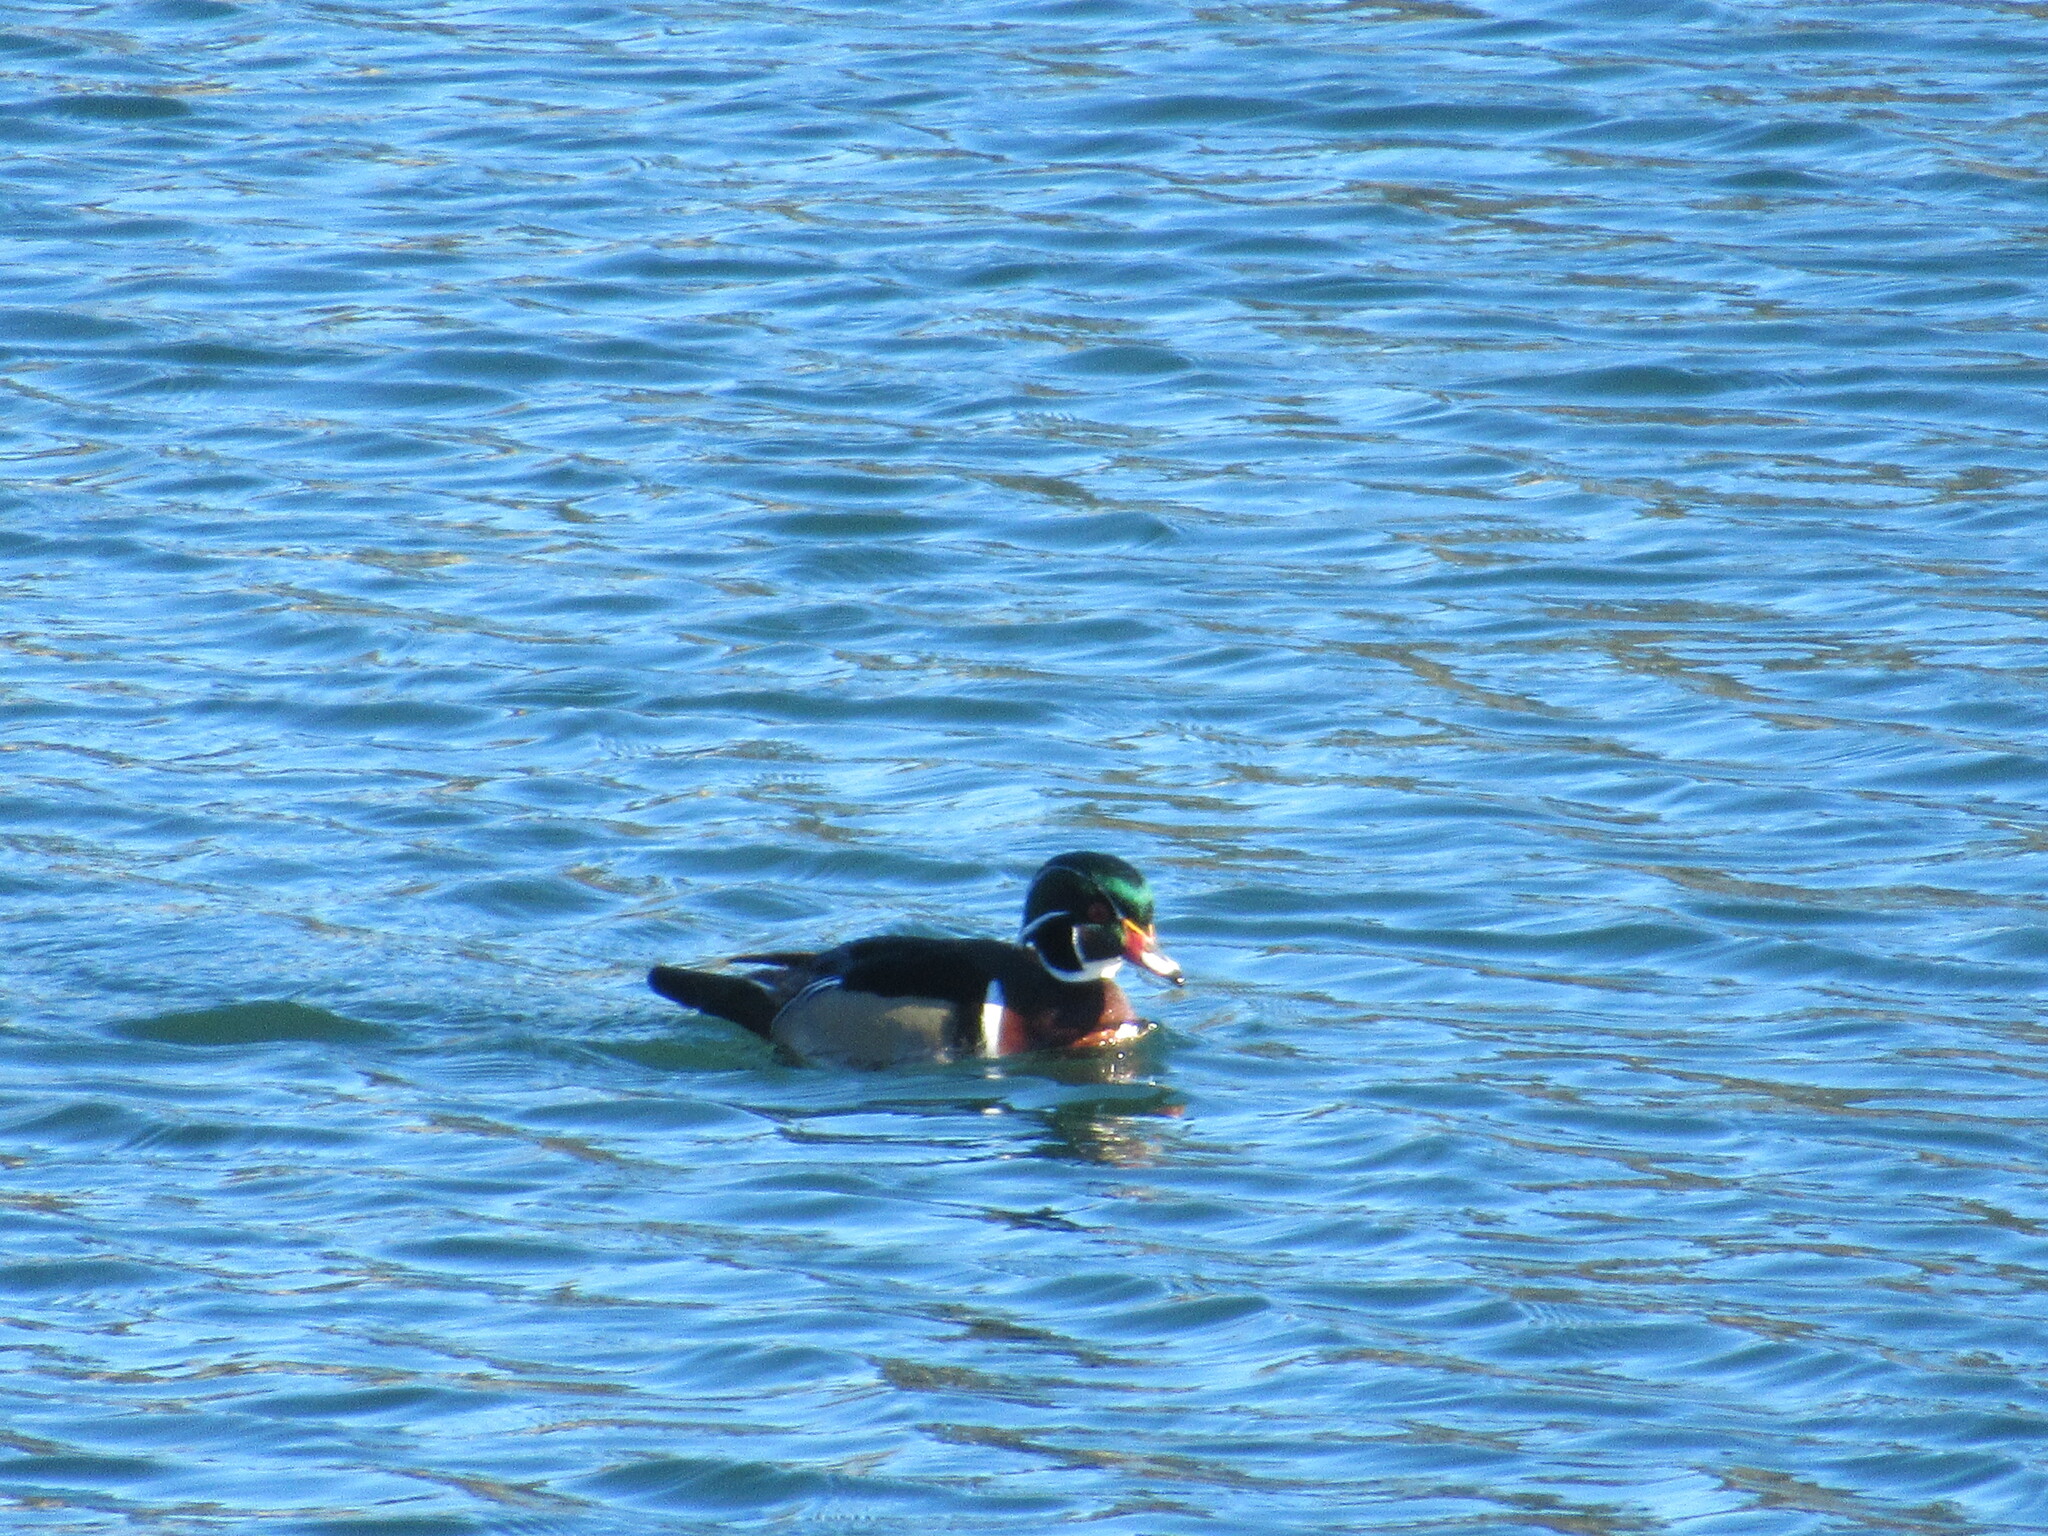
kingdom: Animalia
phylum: Chordata
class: Aves
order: Anseriformes
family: Anatidae
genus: Aix
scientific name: Aix sponsa
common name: Wood duck
